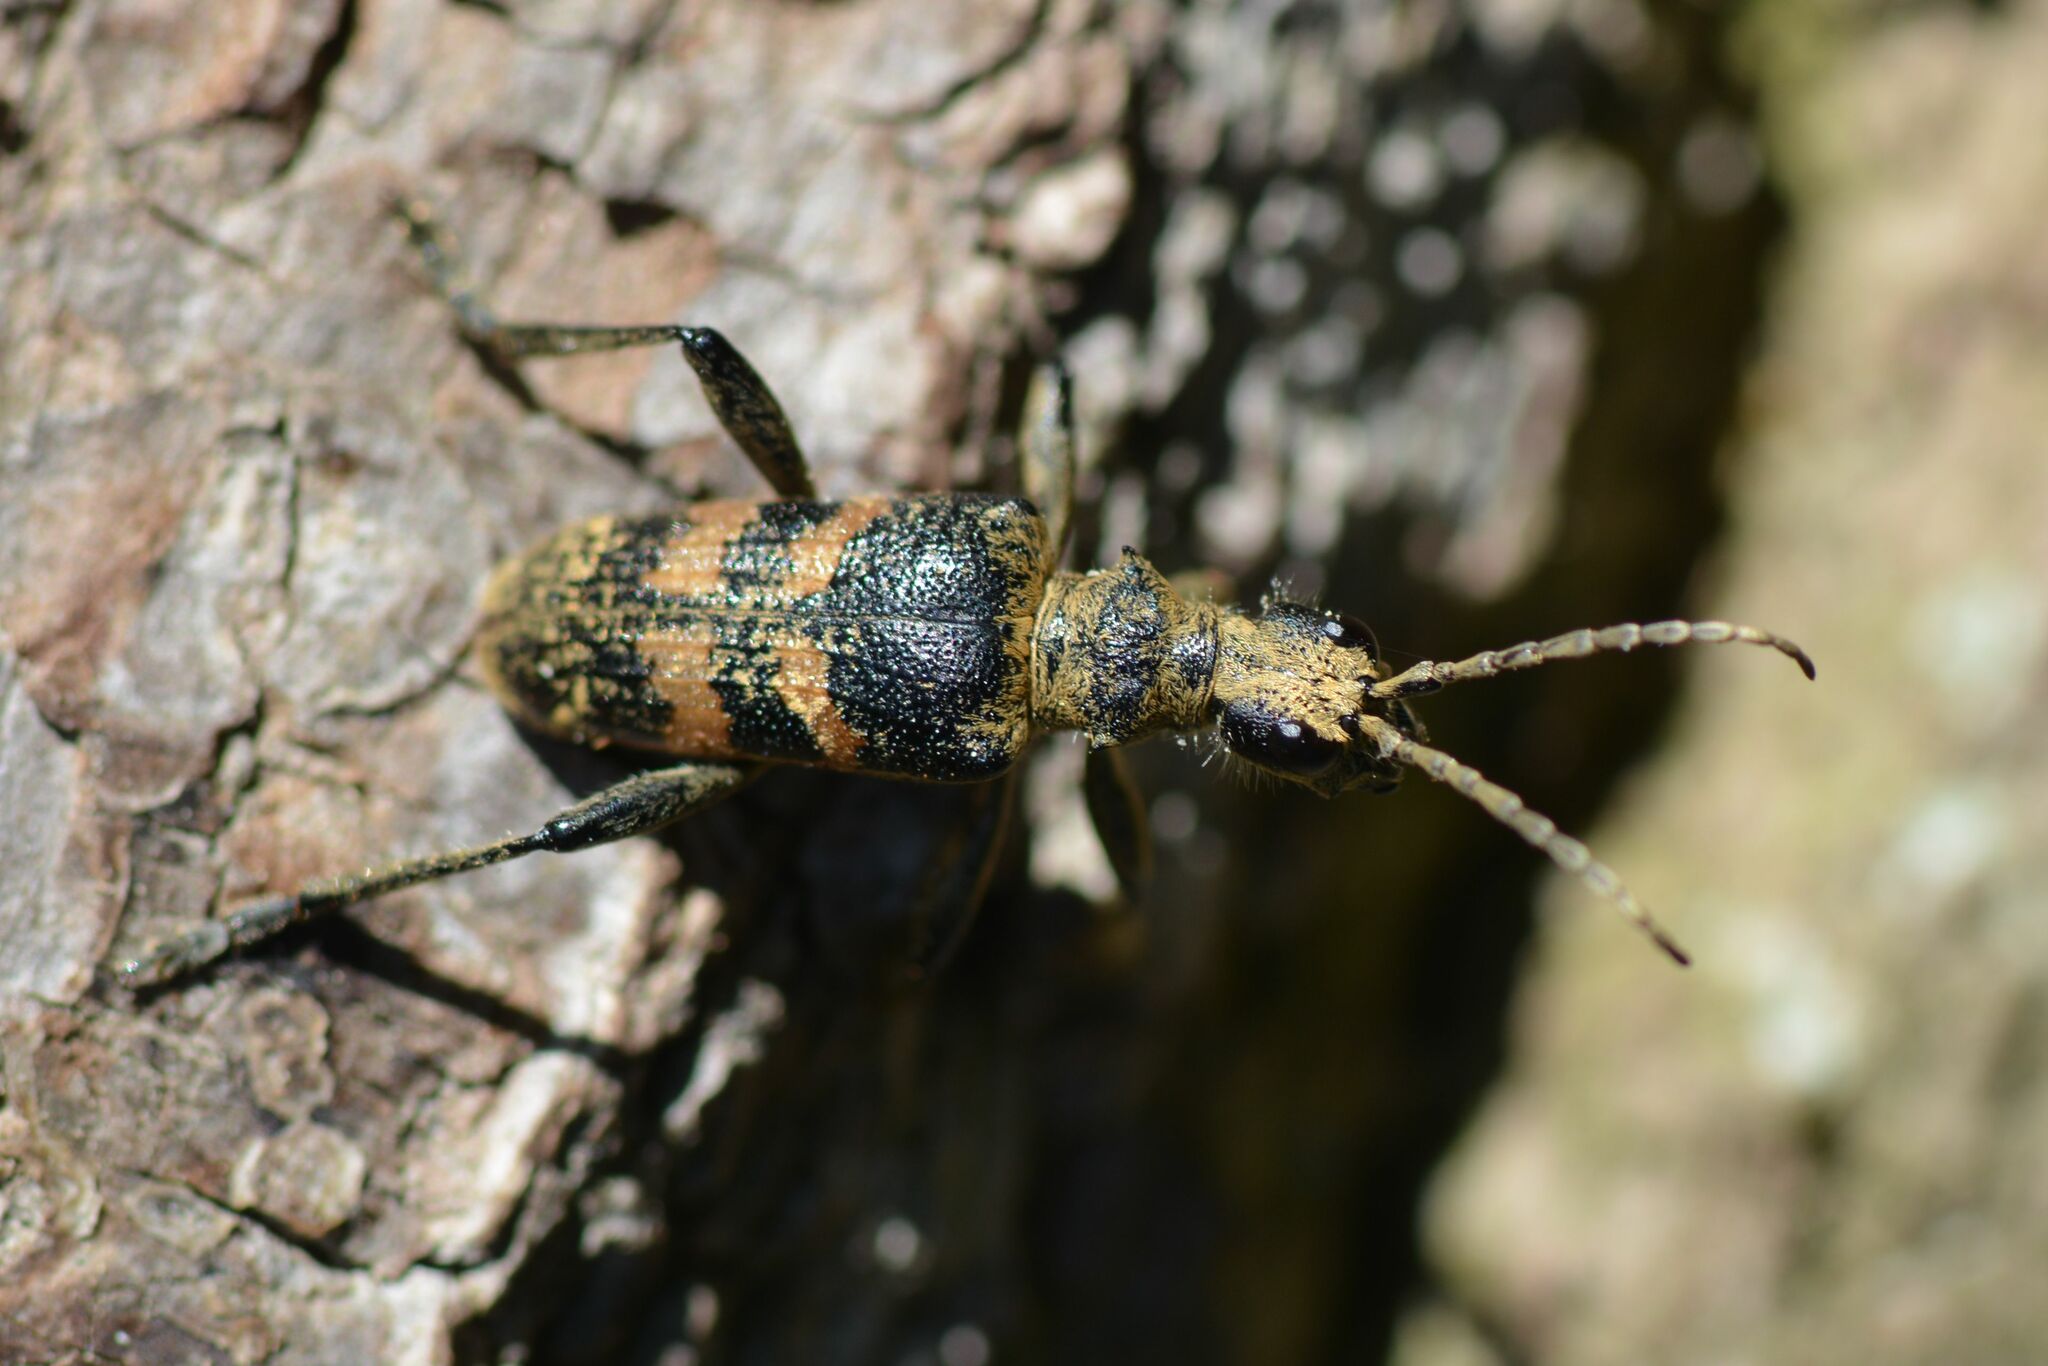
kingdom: Animalia
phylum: Arthropoda
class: Insecta
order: Coleoptera
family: Cerambycidae
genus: Rhagium
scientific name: Rhagium mordax
